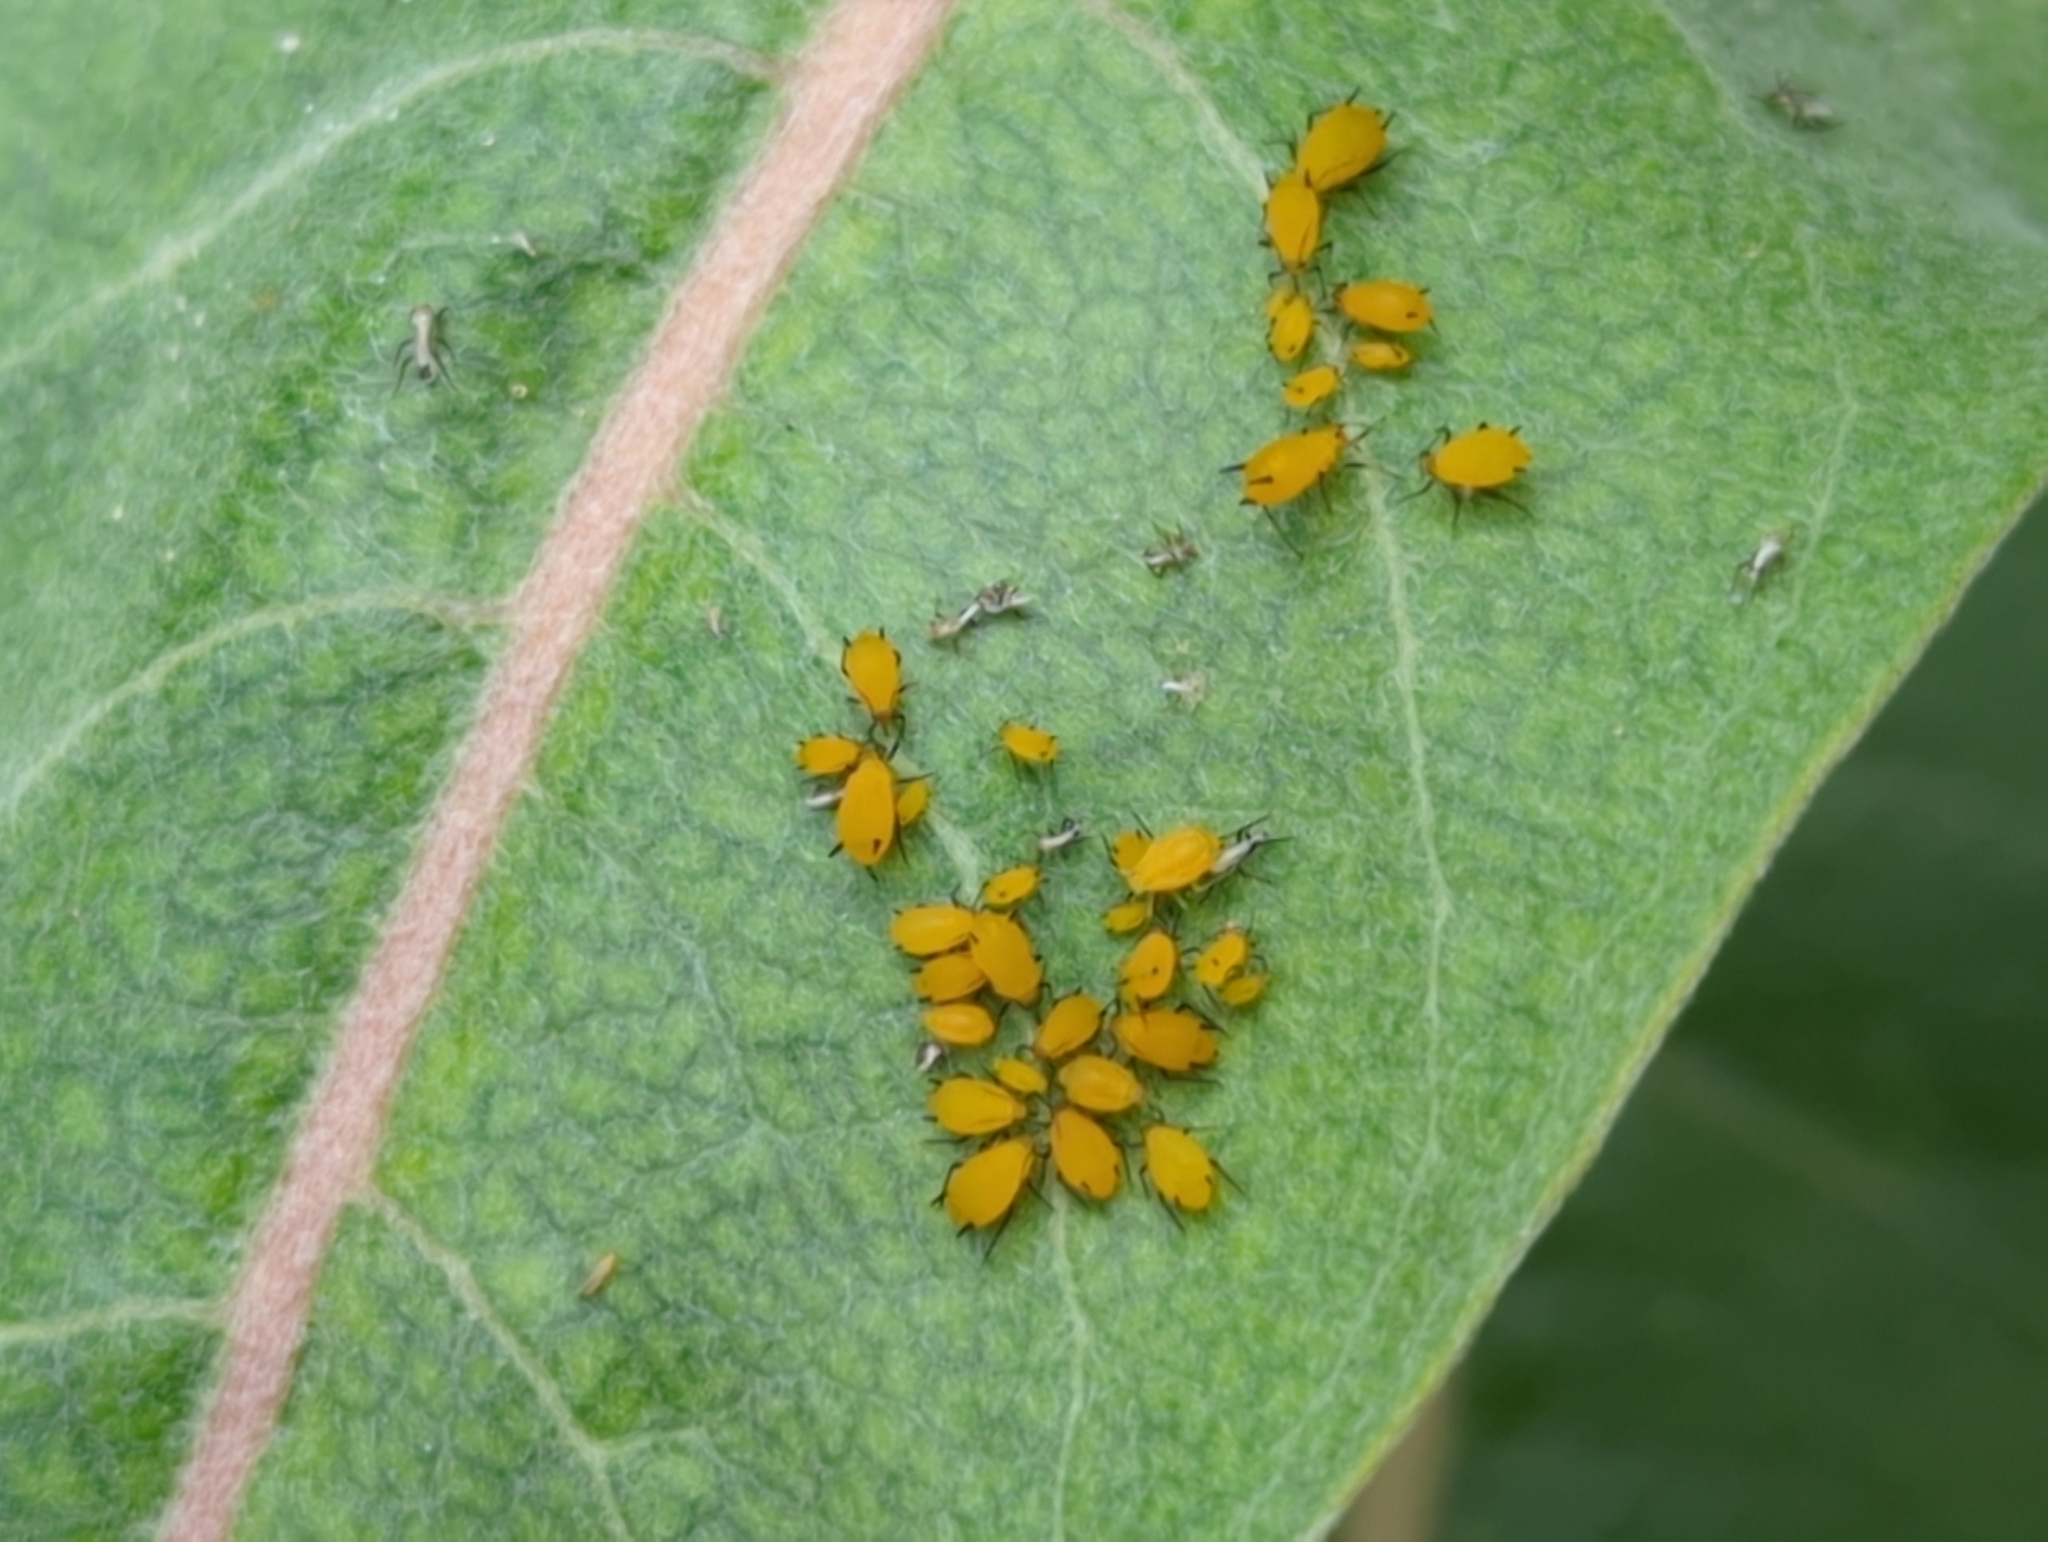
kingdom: Animalia
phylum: Arthropoda
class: Insecta
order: Hemiptera
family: Aphididae
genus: Aphis
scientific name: Aphis nerii
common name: Oleander aphid
